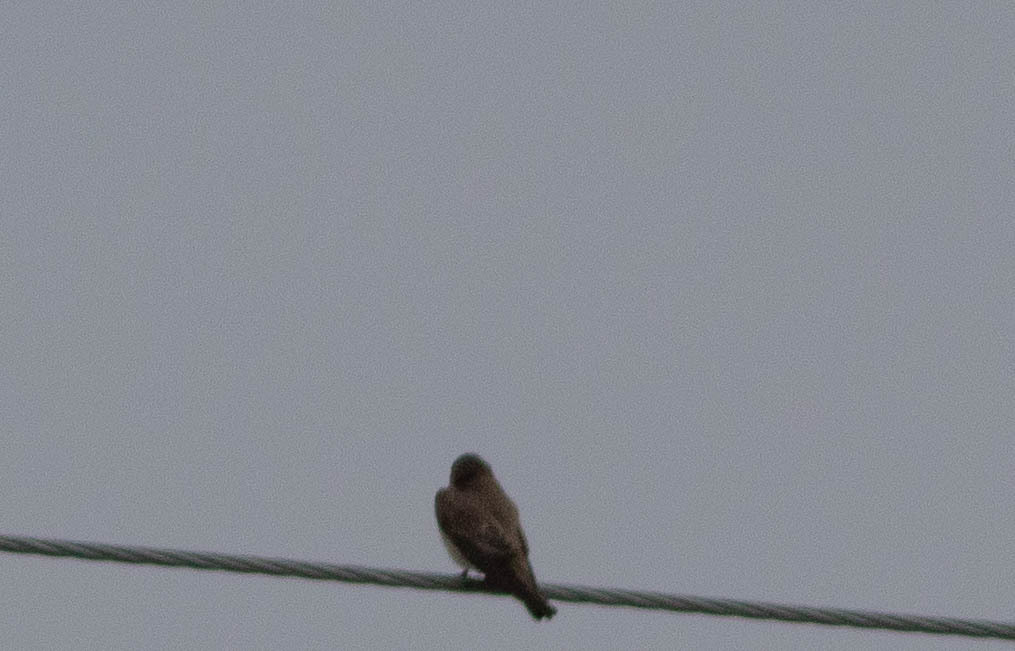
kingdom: Animalia
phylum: Chordata
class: Aves
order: Passeriformes
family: Hirundinidae
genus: Stelgidopteryx
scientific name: Stelgidopteryx serripennis
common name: Northern rough-winged swallow
